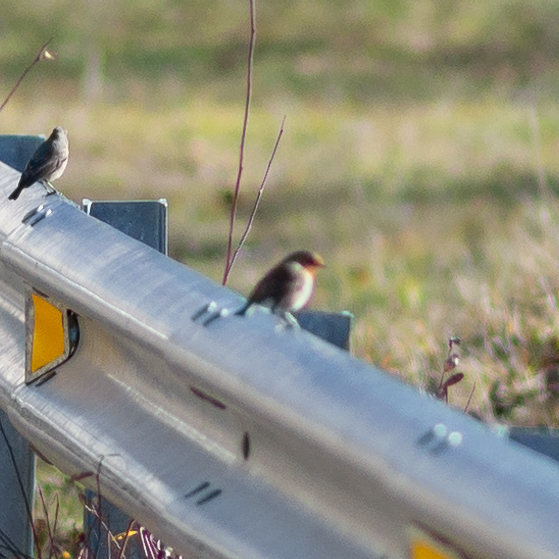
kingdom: Animalia
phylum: Chordata
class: Aves
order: Passeriformes
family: Muscicapidae
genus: Erithacus
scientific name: Erithacus rubecula
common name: European robin
